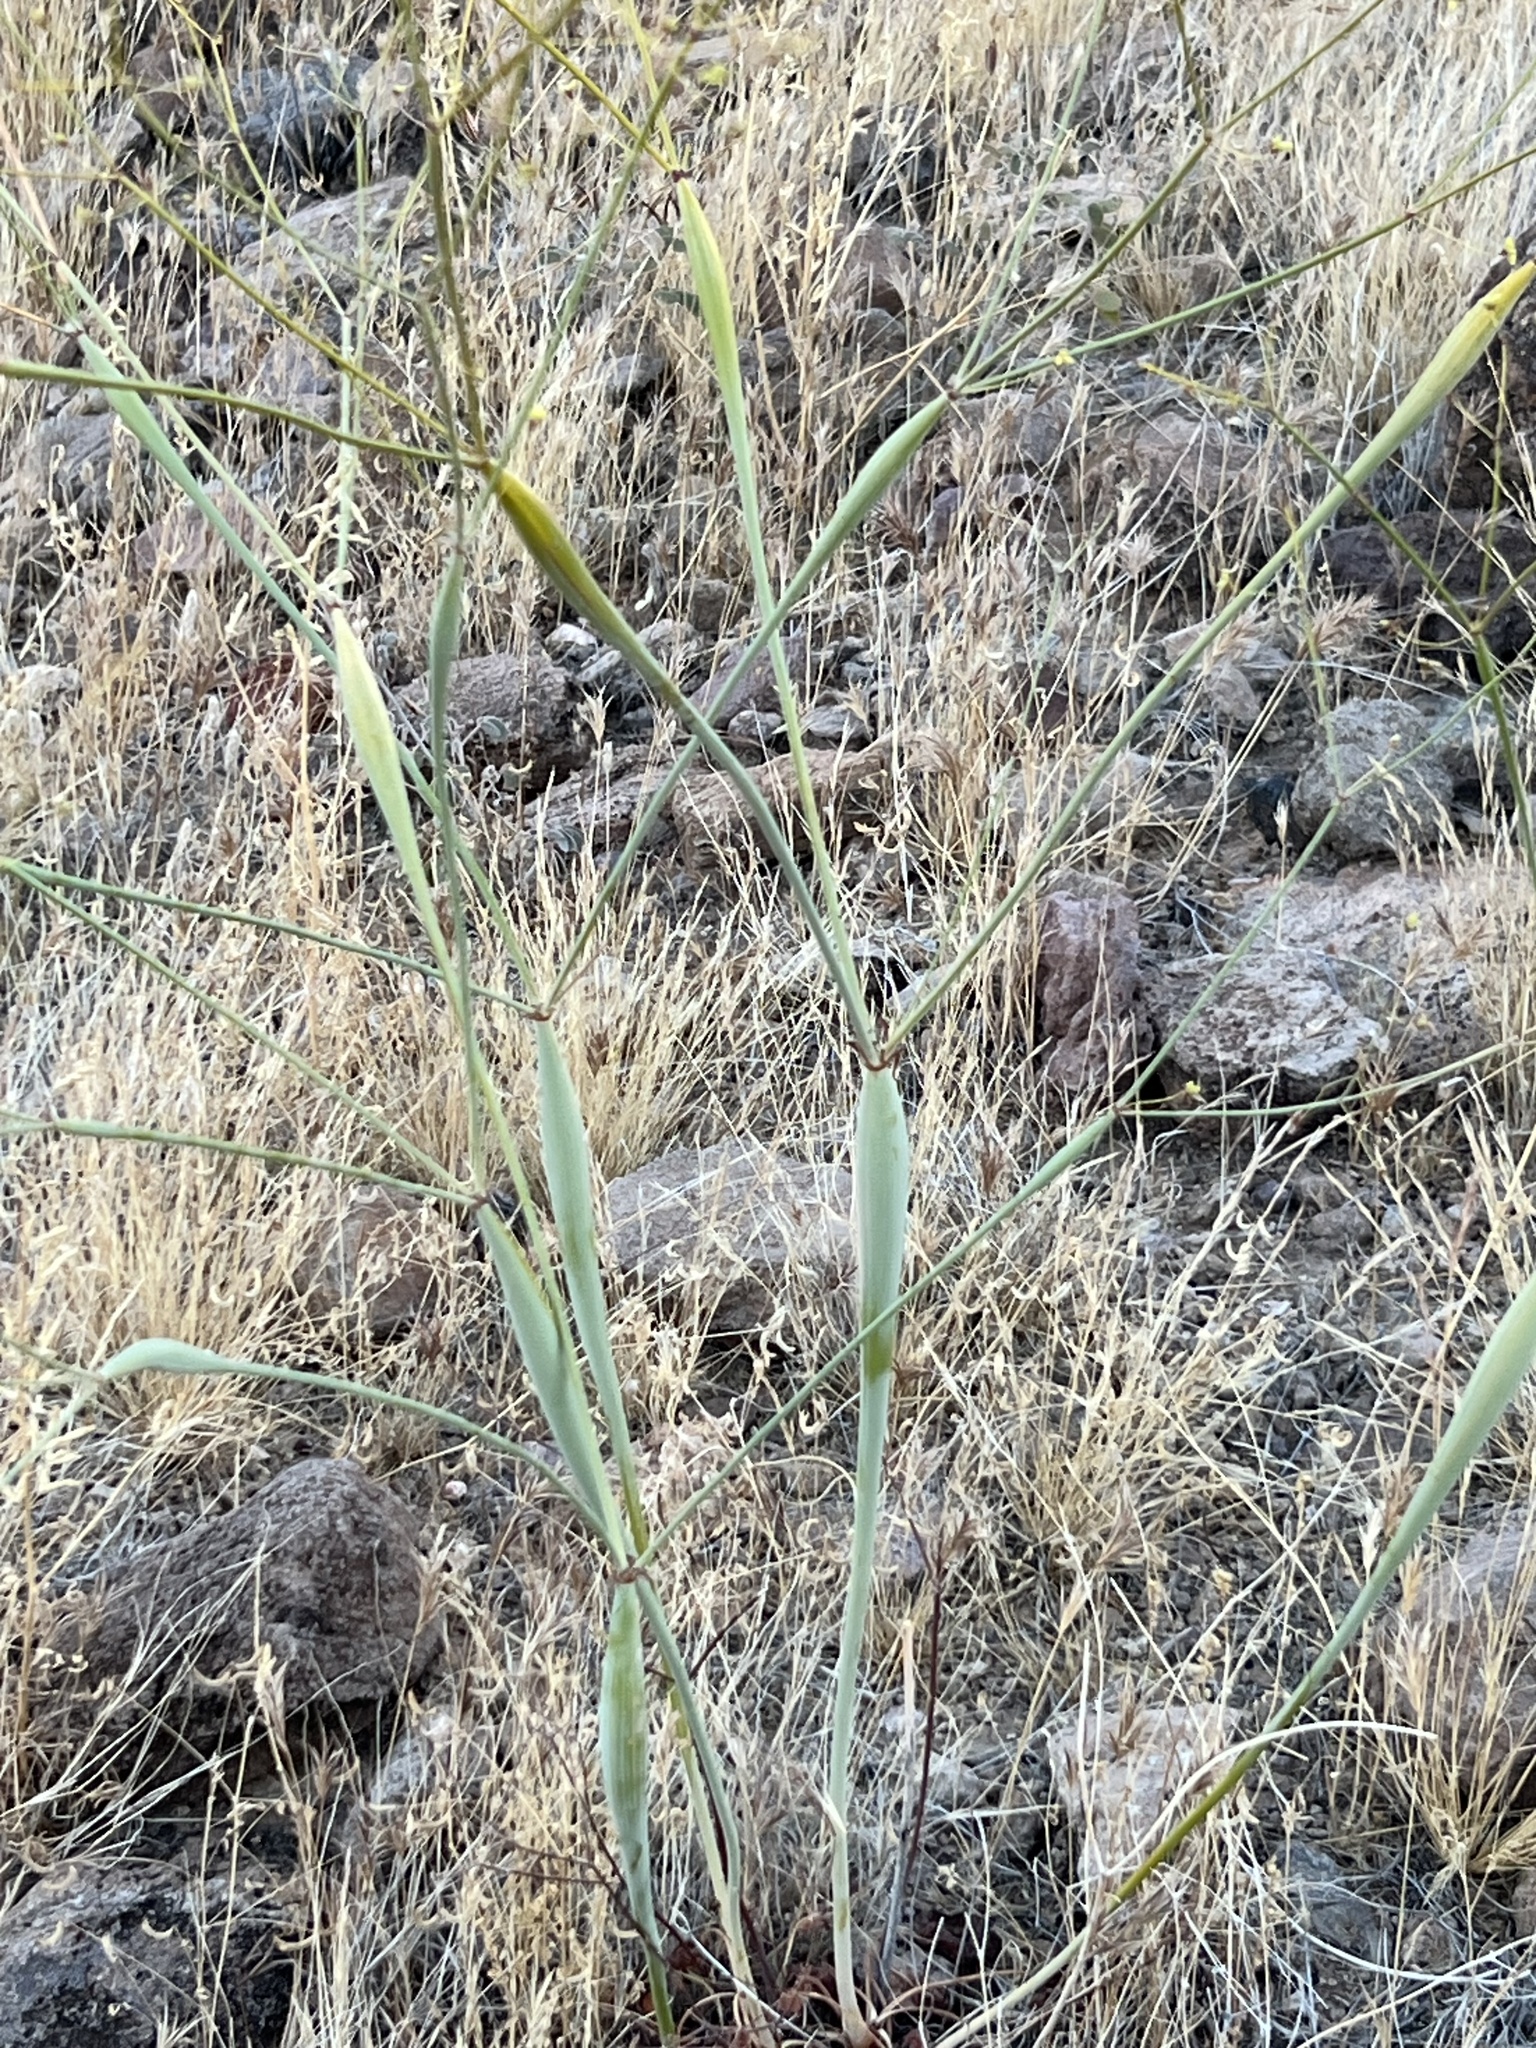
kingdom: Plantae
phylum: Tracheophyta
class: Magnoliopsida
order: Caryophyllales
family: Polygonaceae
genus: Eriogonum
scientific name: Eriogonum inflatum
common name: Desert trumpet
